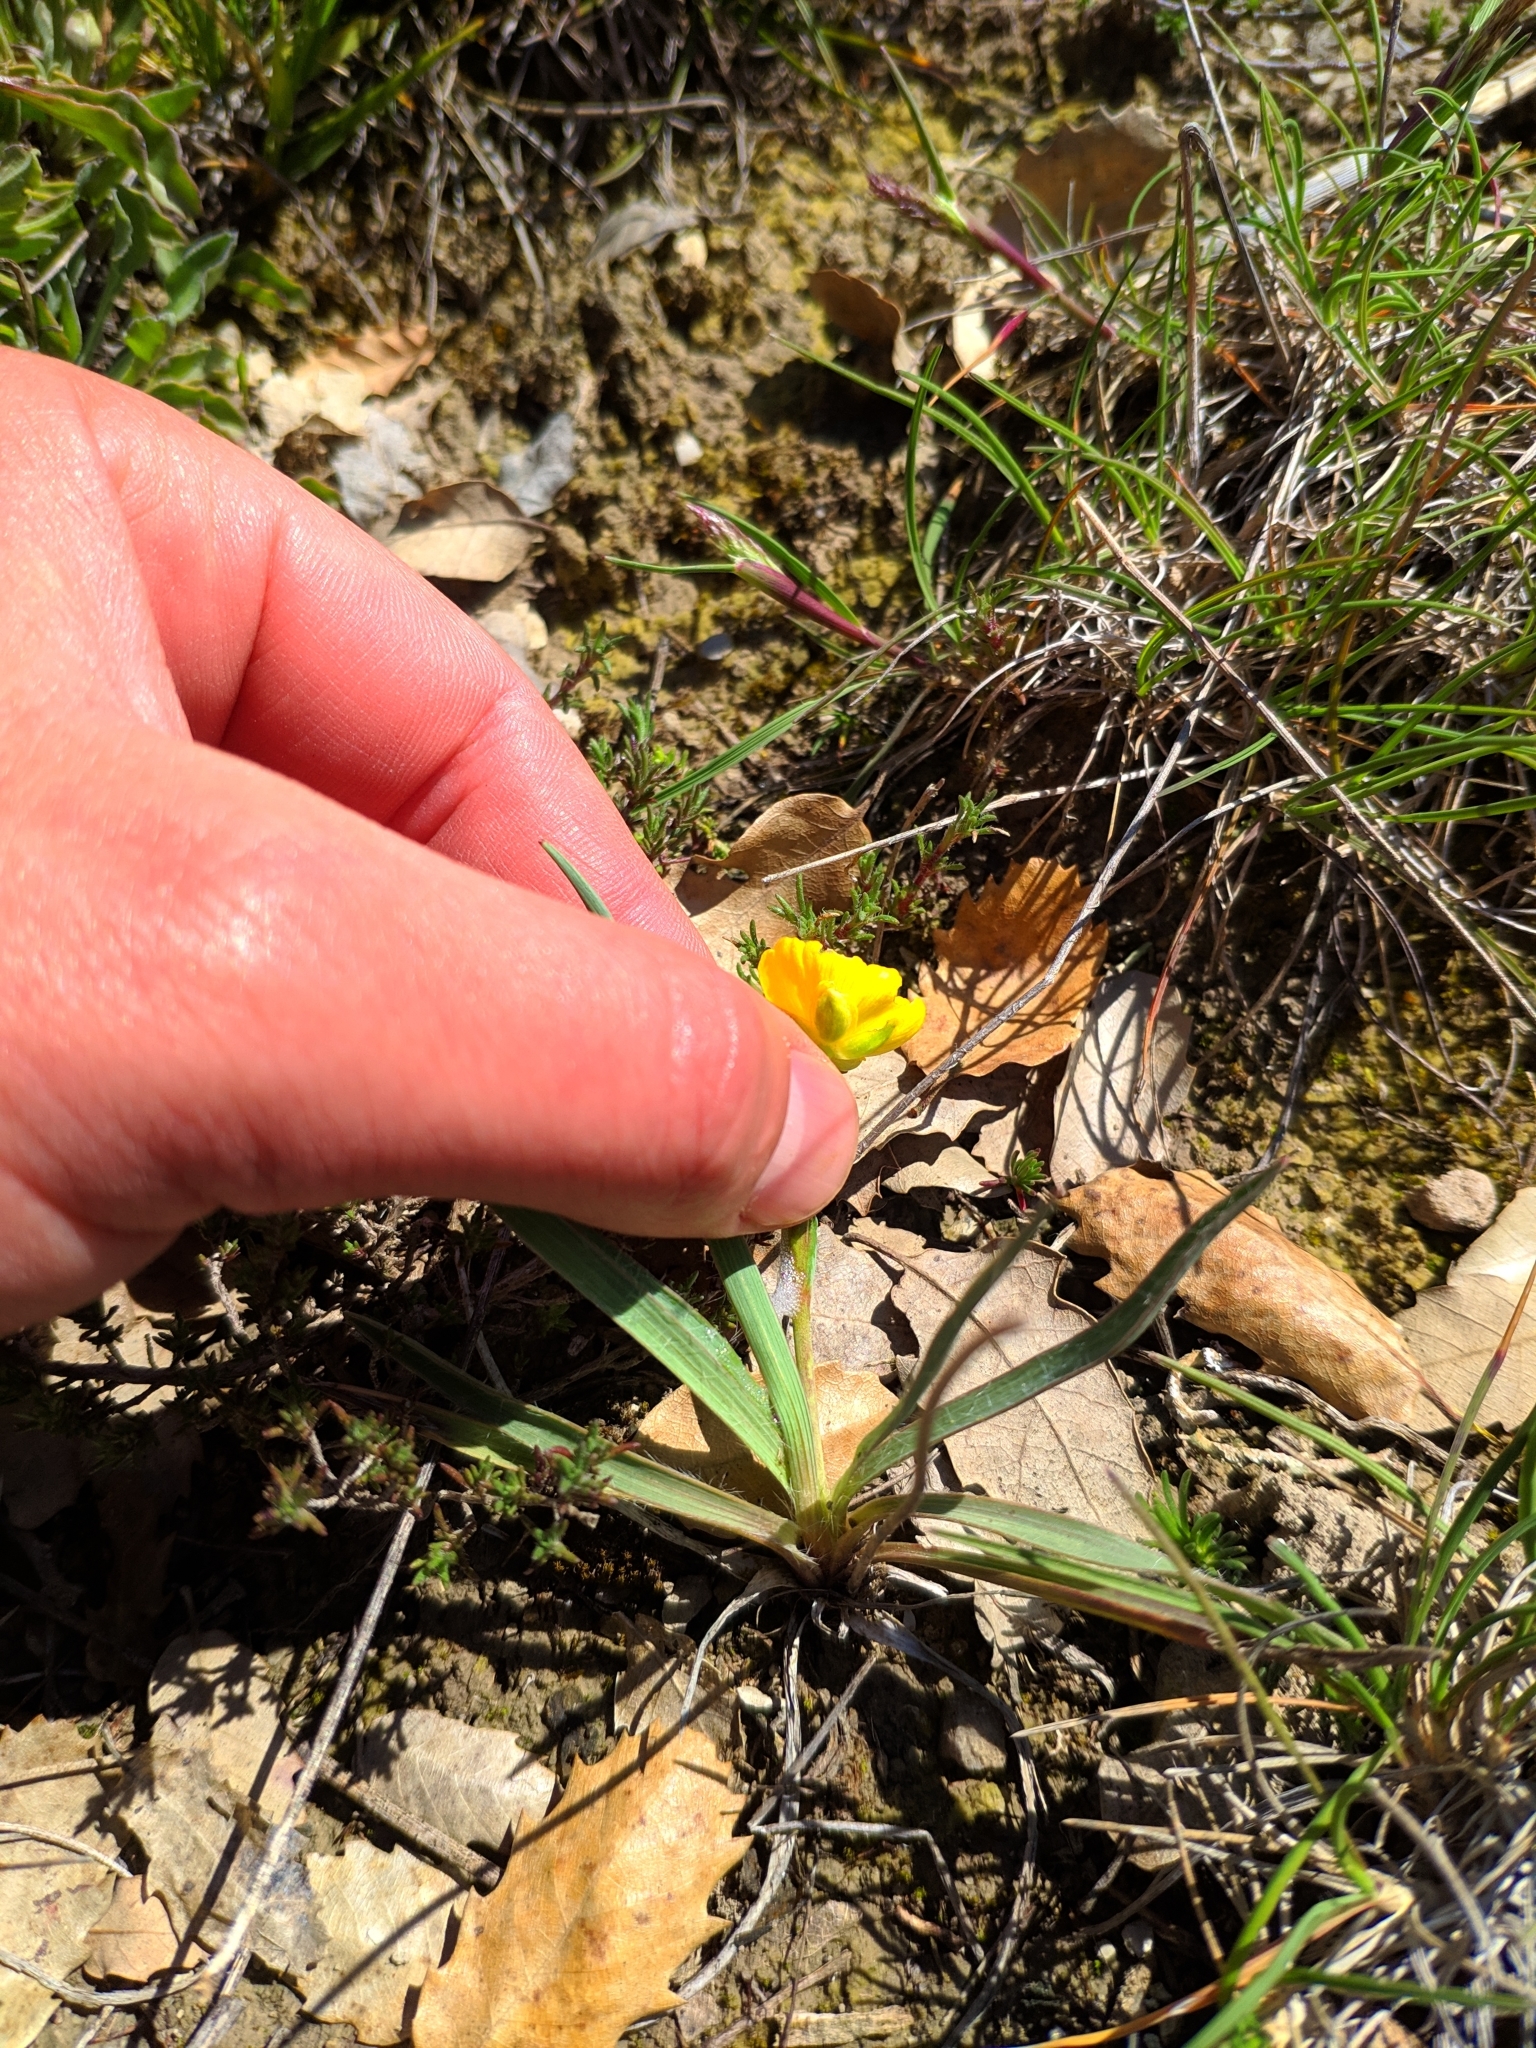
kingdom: Plantae
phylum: Tracheophyta
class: Magnoliopsida
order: Ranunculales
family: Ranunculaceae
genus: Ranunculus
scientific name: Ranunculus gramineus
